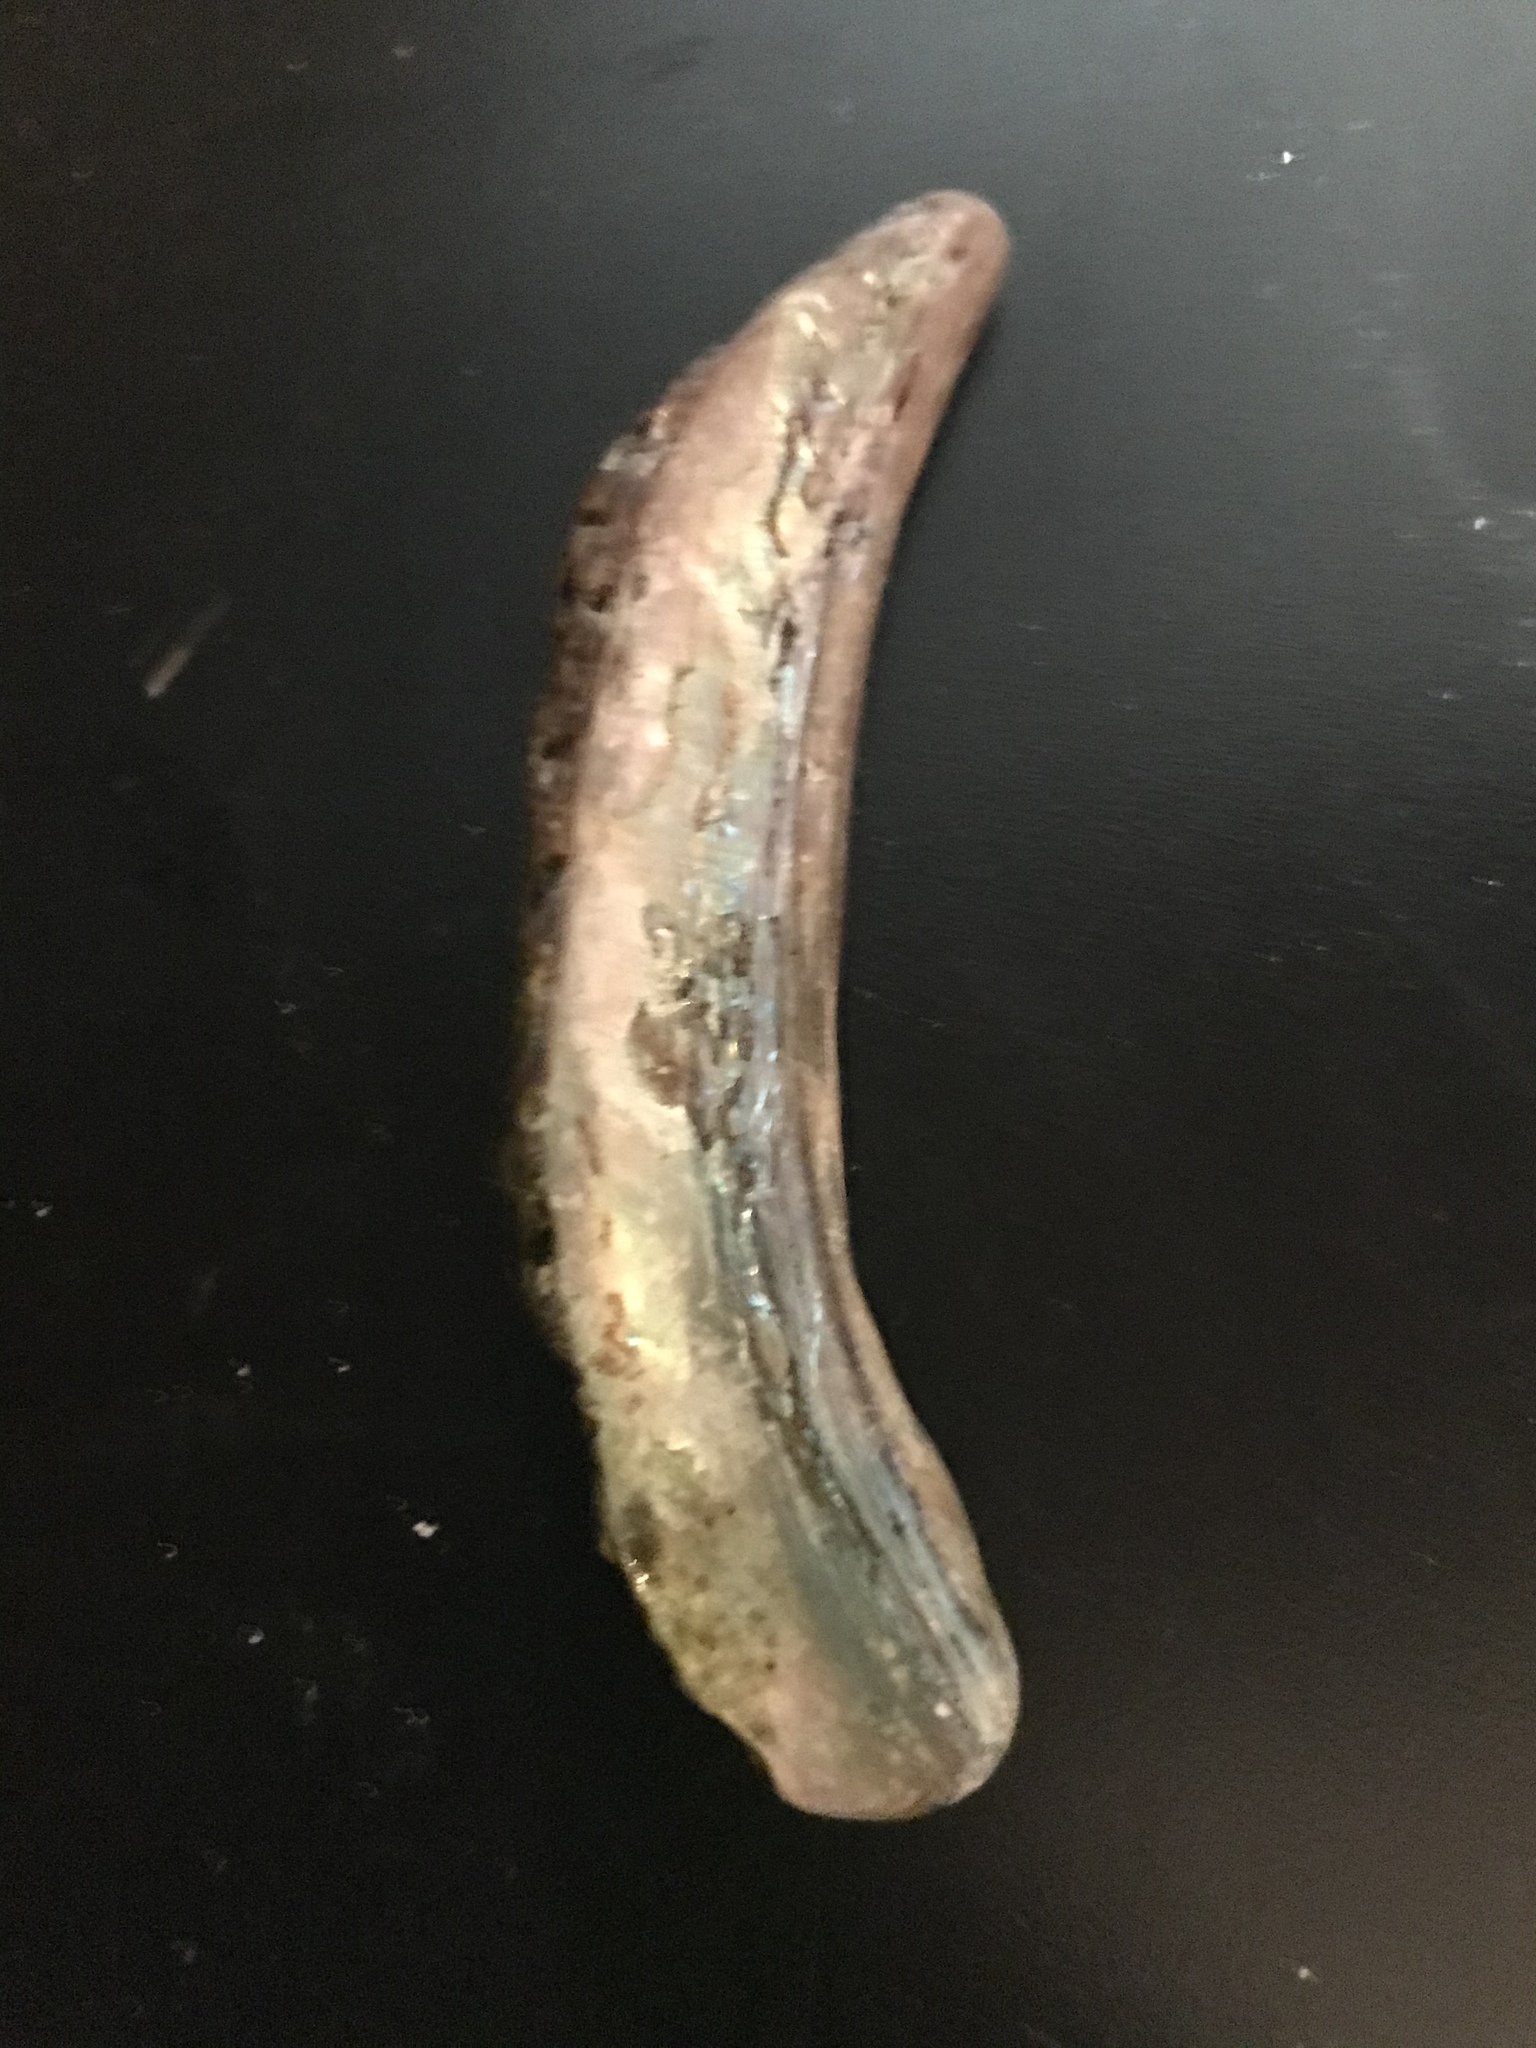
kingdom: Animalia
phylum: Mollusca
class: Gastropoda
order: Lepetellida
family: Haliotidae
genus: Haliotis
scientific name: Haliotis rufescens
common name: Red abalone
